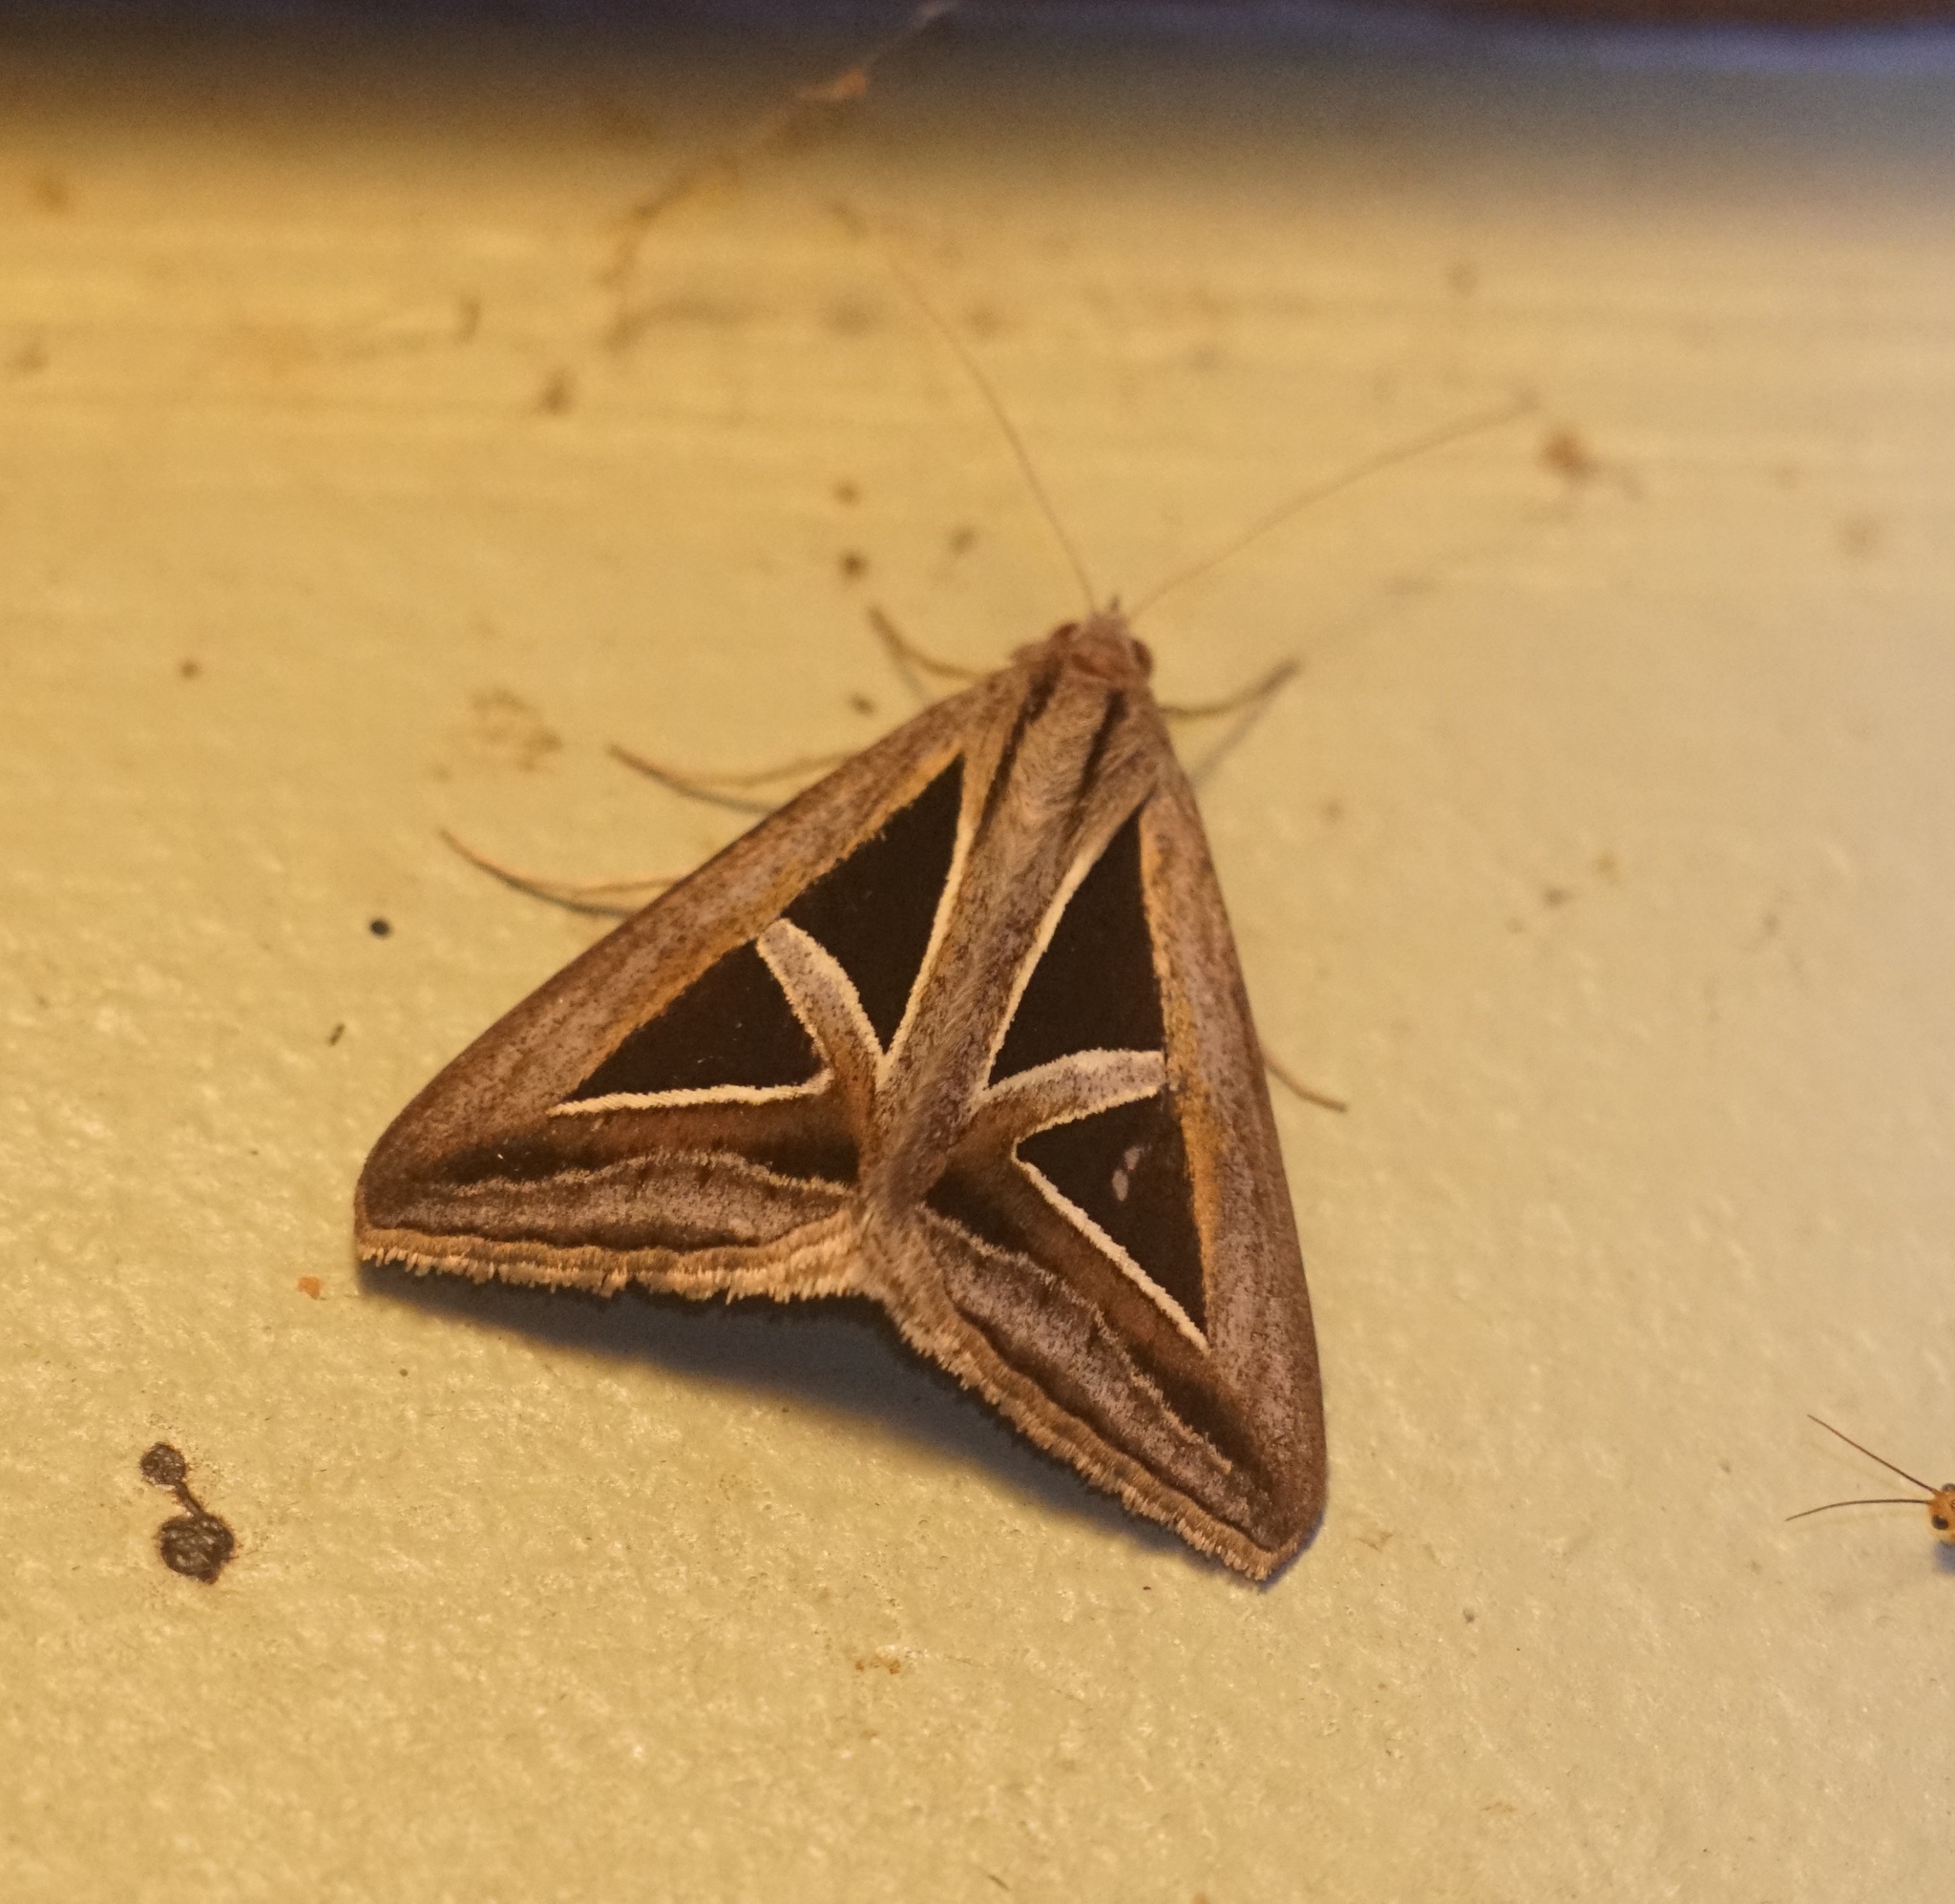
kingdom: Animalia
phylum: Arthropoda
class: Insecta
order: Lepidoptera
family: Erebidae
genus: Trigonodes
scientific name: Trigonodes hyppasia
